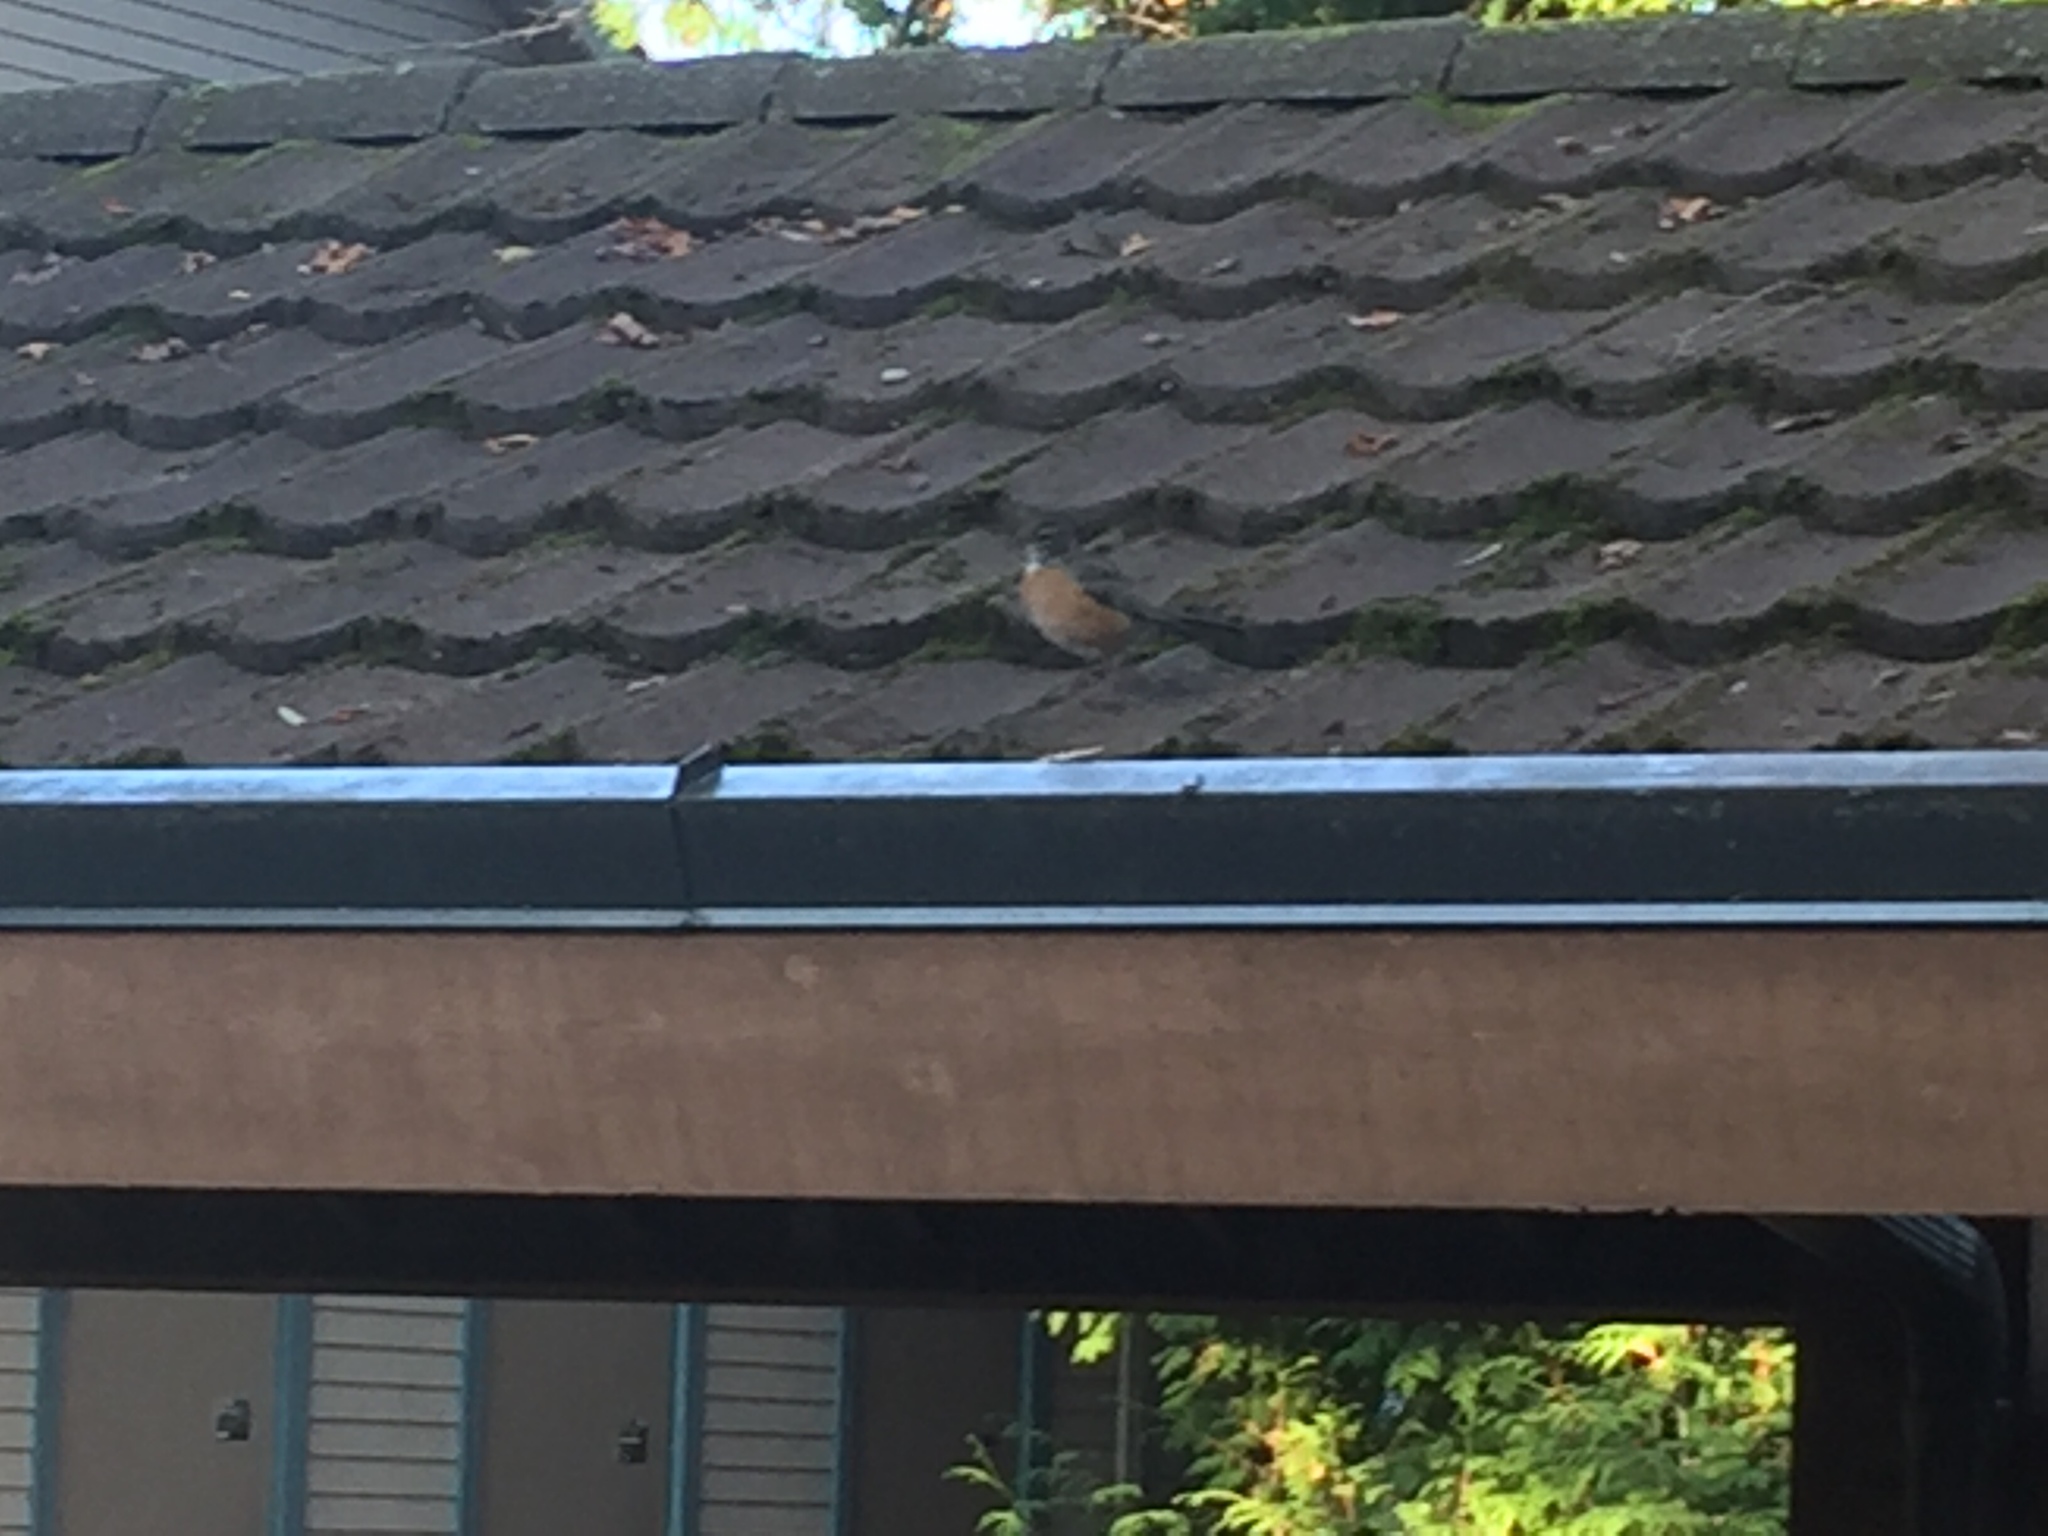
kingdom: Animalia
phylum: Chordata
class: Aves
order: Passeriformes
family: Turdidae
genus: Turdus
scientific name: Turdus migratorius
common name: American robin
